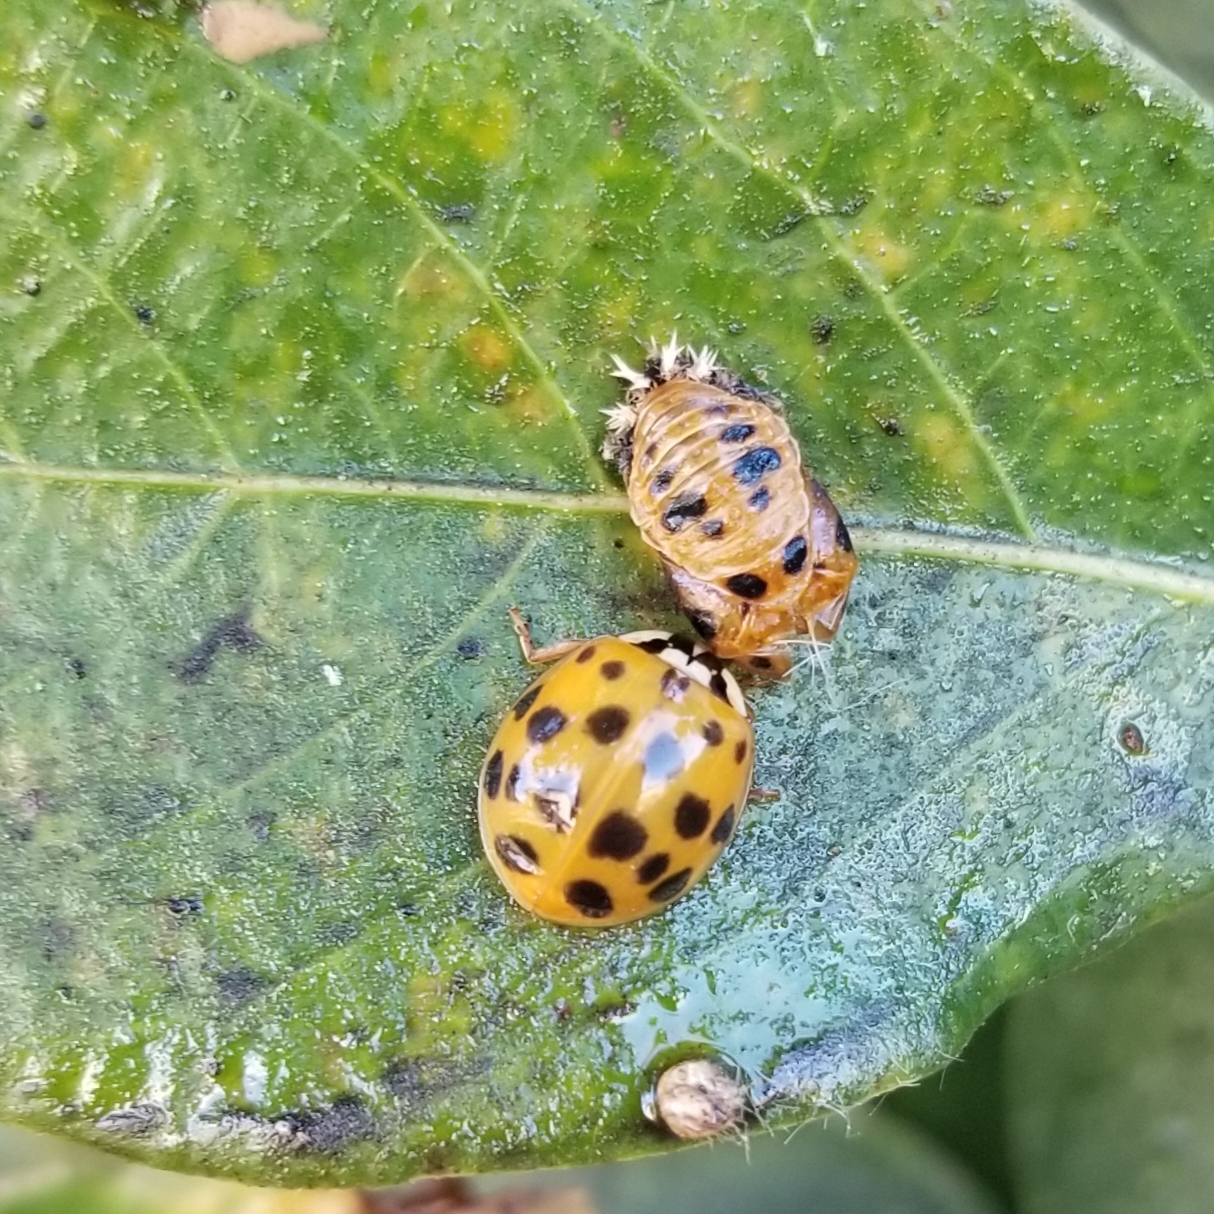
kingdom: Animalia
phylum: Arthropoda
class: Insecta
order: Coleoptera
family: Coccinellidae
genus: Harmonia
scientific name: Harmonia axyridis
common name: Harlequin ladybird
